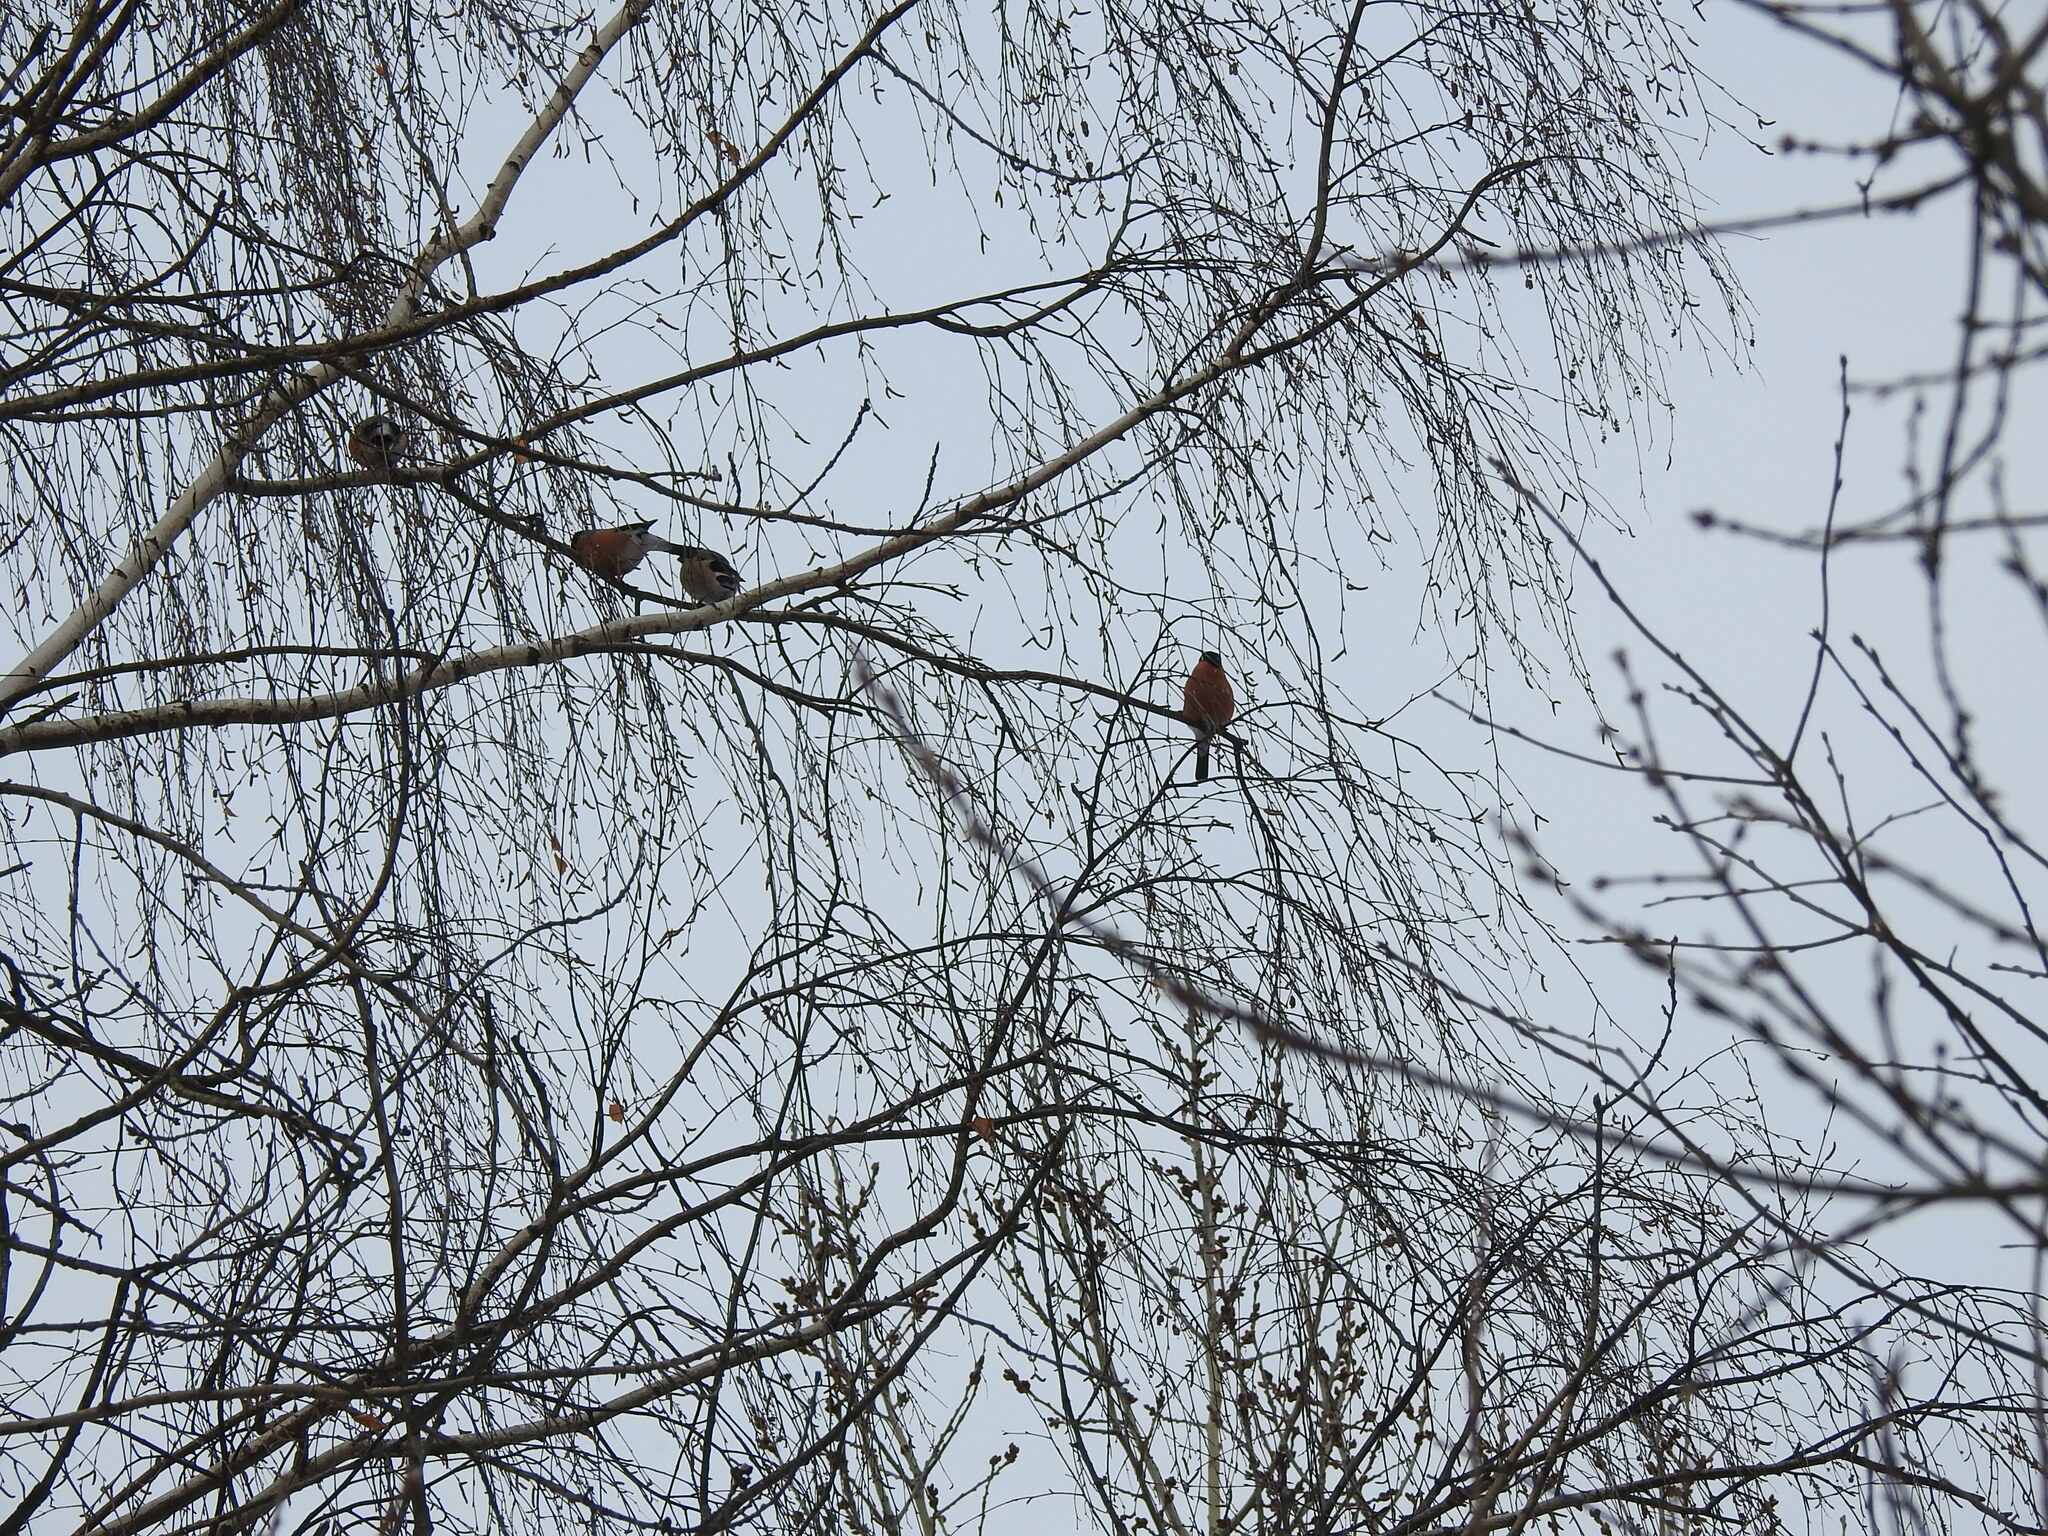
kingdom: Animalia
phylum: Chordata
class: Aves
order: Passeriformes
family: Fringillidae
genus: Pyrrhula
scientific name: Pyrrhula pyrrhula
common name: Eurasian bullfinch
